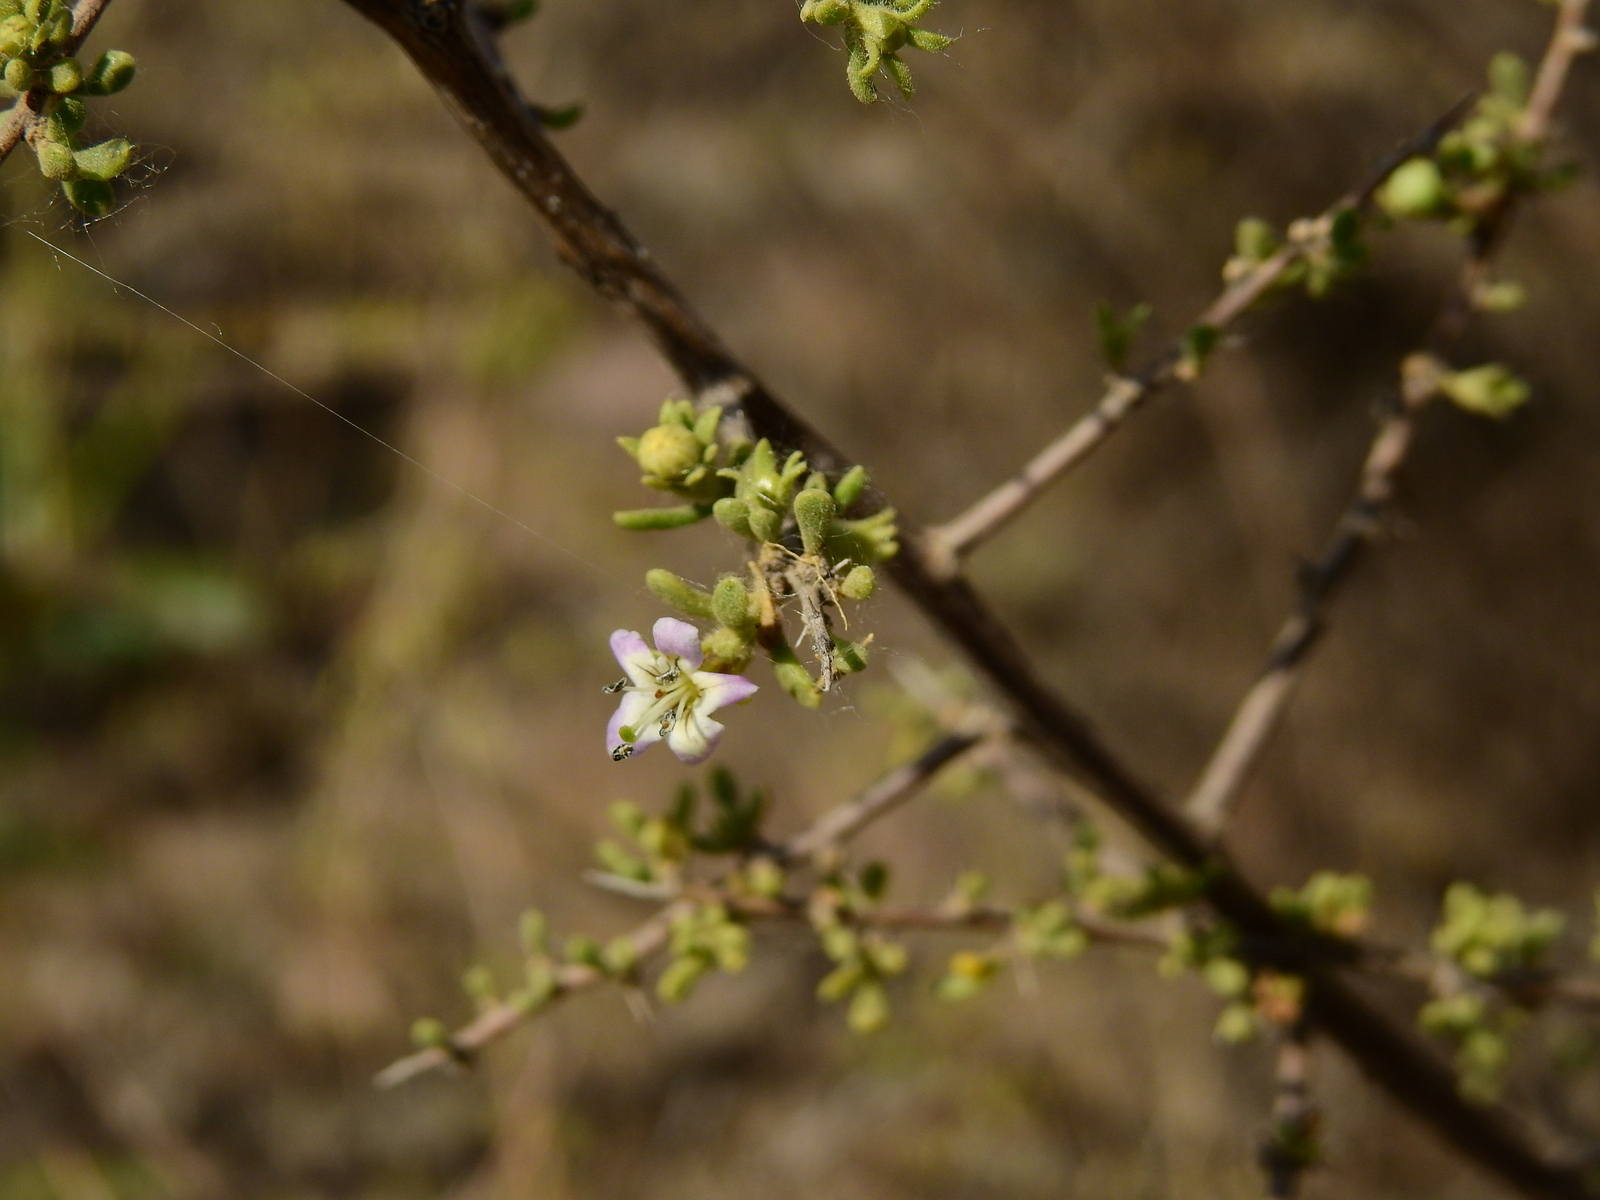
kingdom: Plantae
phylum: Tracheophyta
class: Magnoliopsida
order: Solanales
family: Solanaceae
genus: Lycium
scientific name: Lycium tenuispinosum
